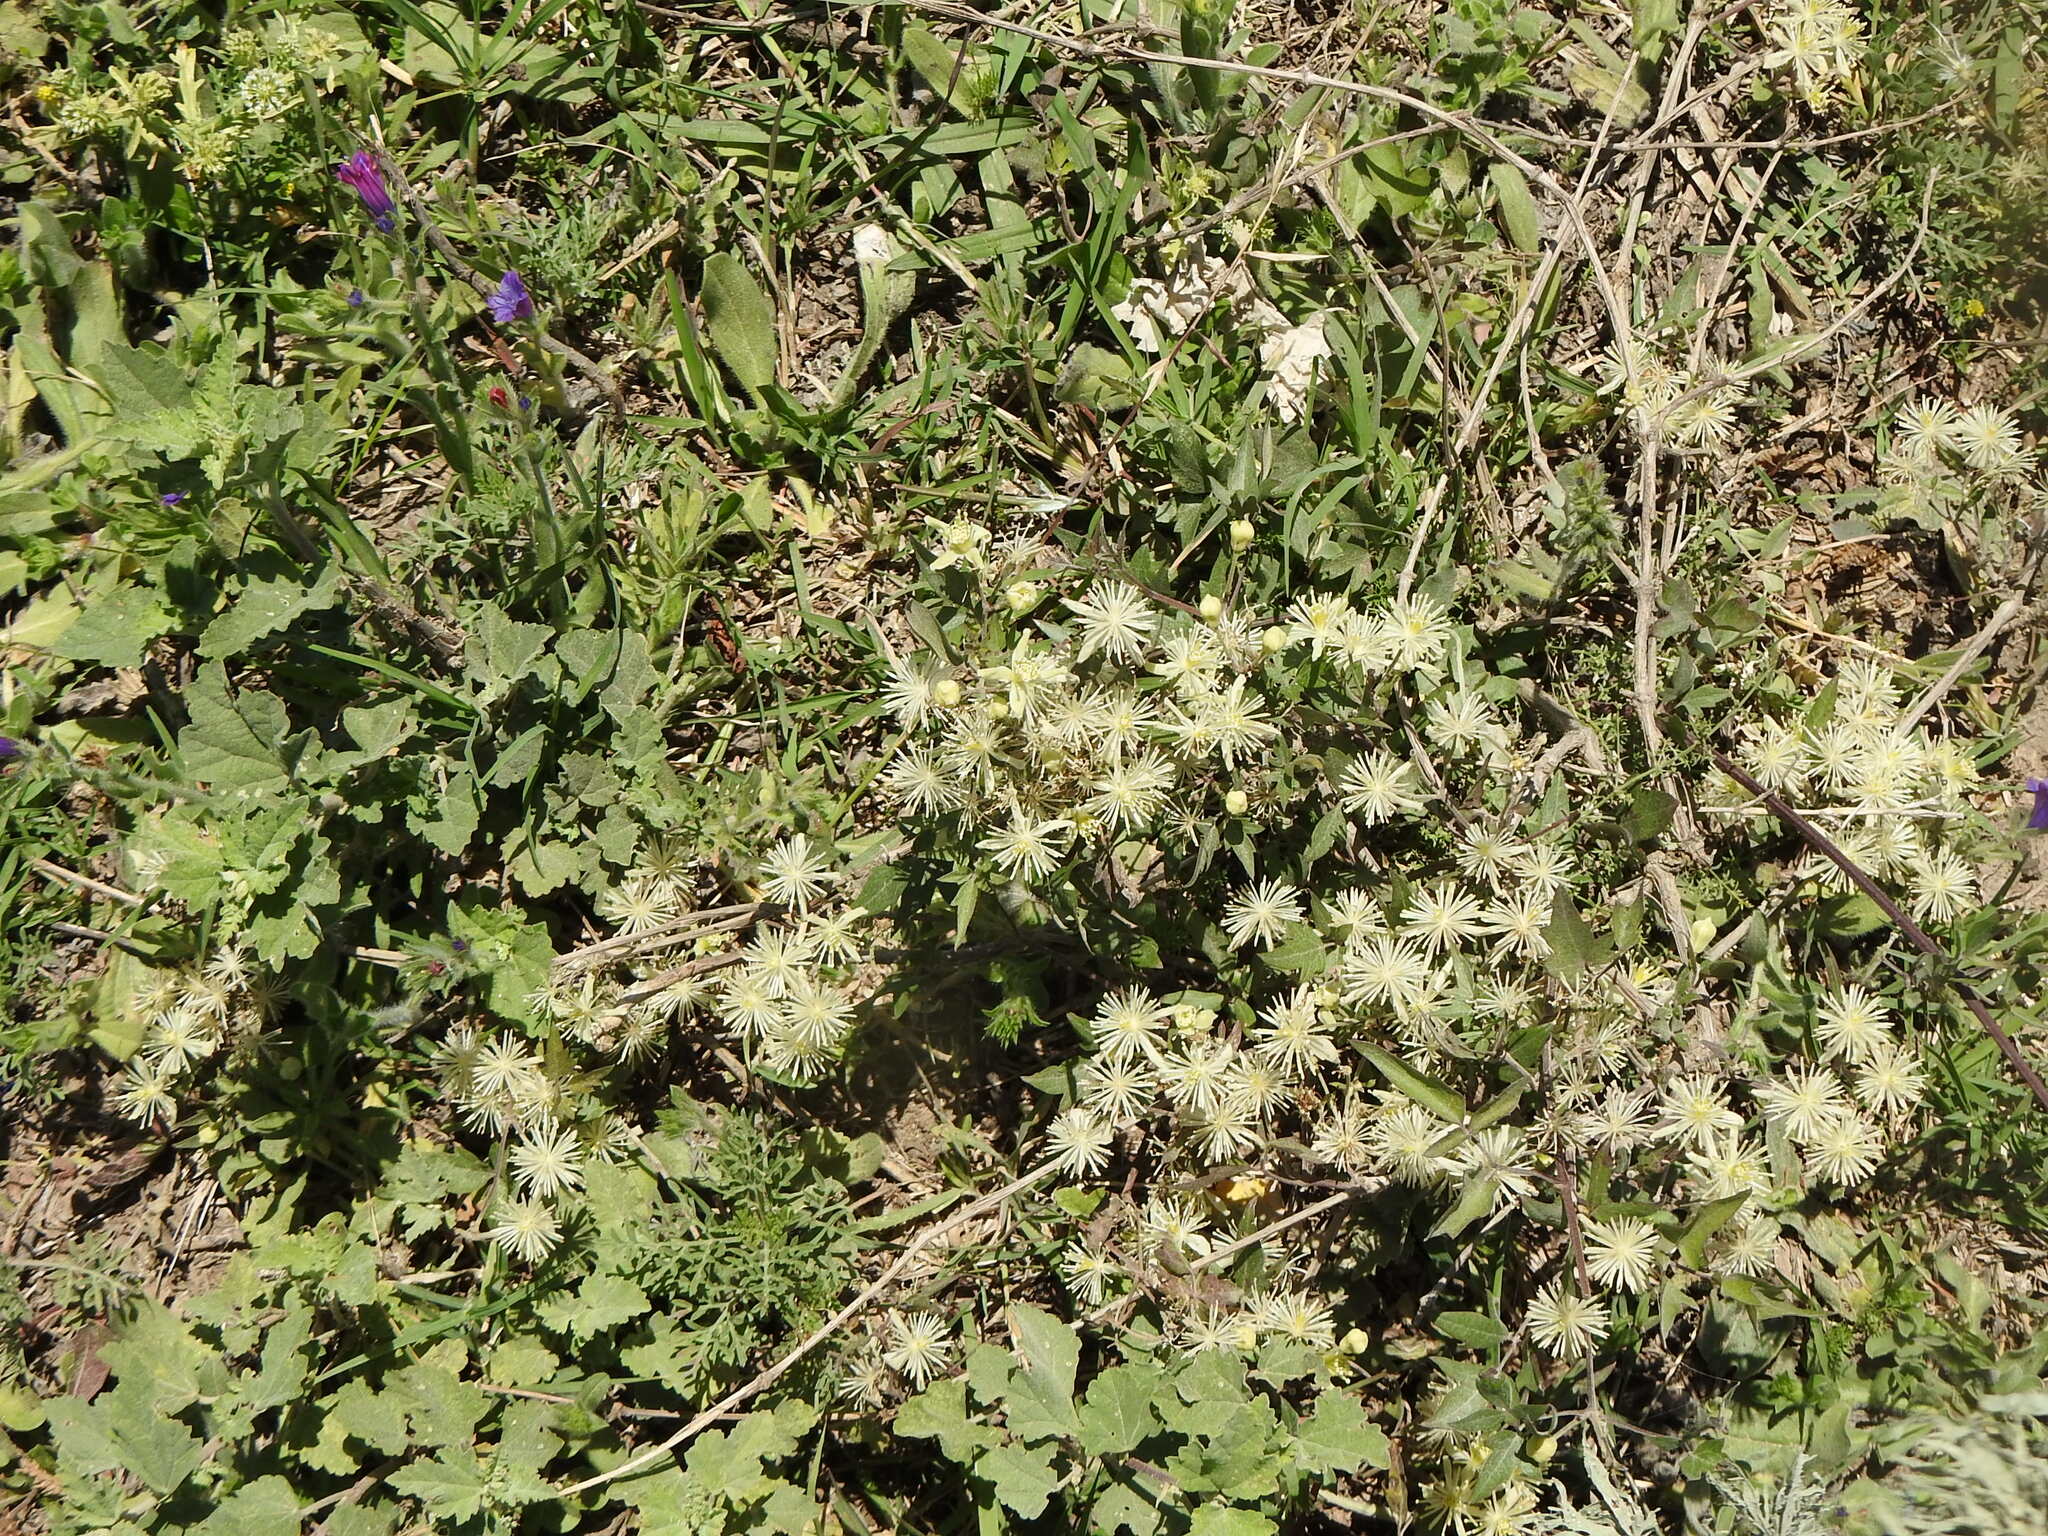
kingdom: Plantae
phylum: Tracheophyta
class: Magnoliopsida
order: Ranunculales
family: Ranunculaceae
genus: Clematis
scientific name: Clematis montevidensis
